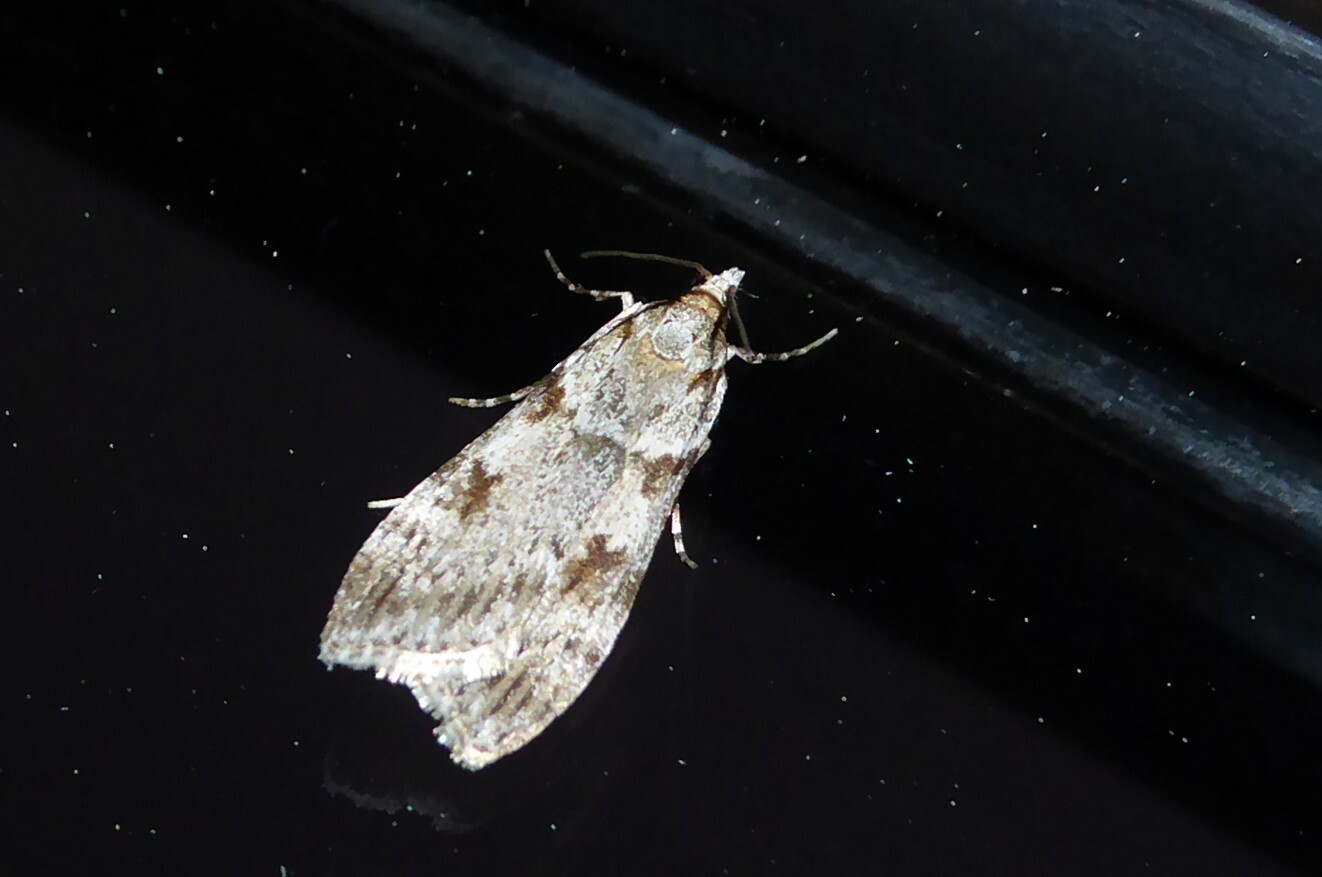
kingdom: Animalia
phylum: Arthropoda
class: Insecta
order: Lepidoptera
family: Crambidae
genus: Scoparia
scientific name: Scoparia halopis
